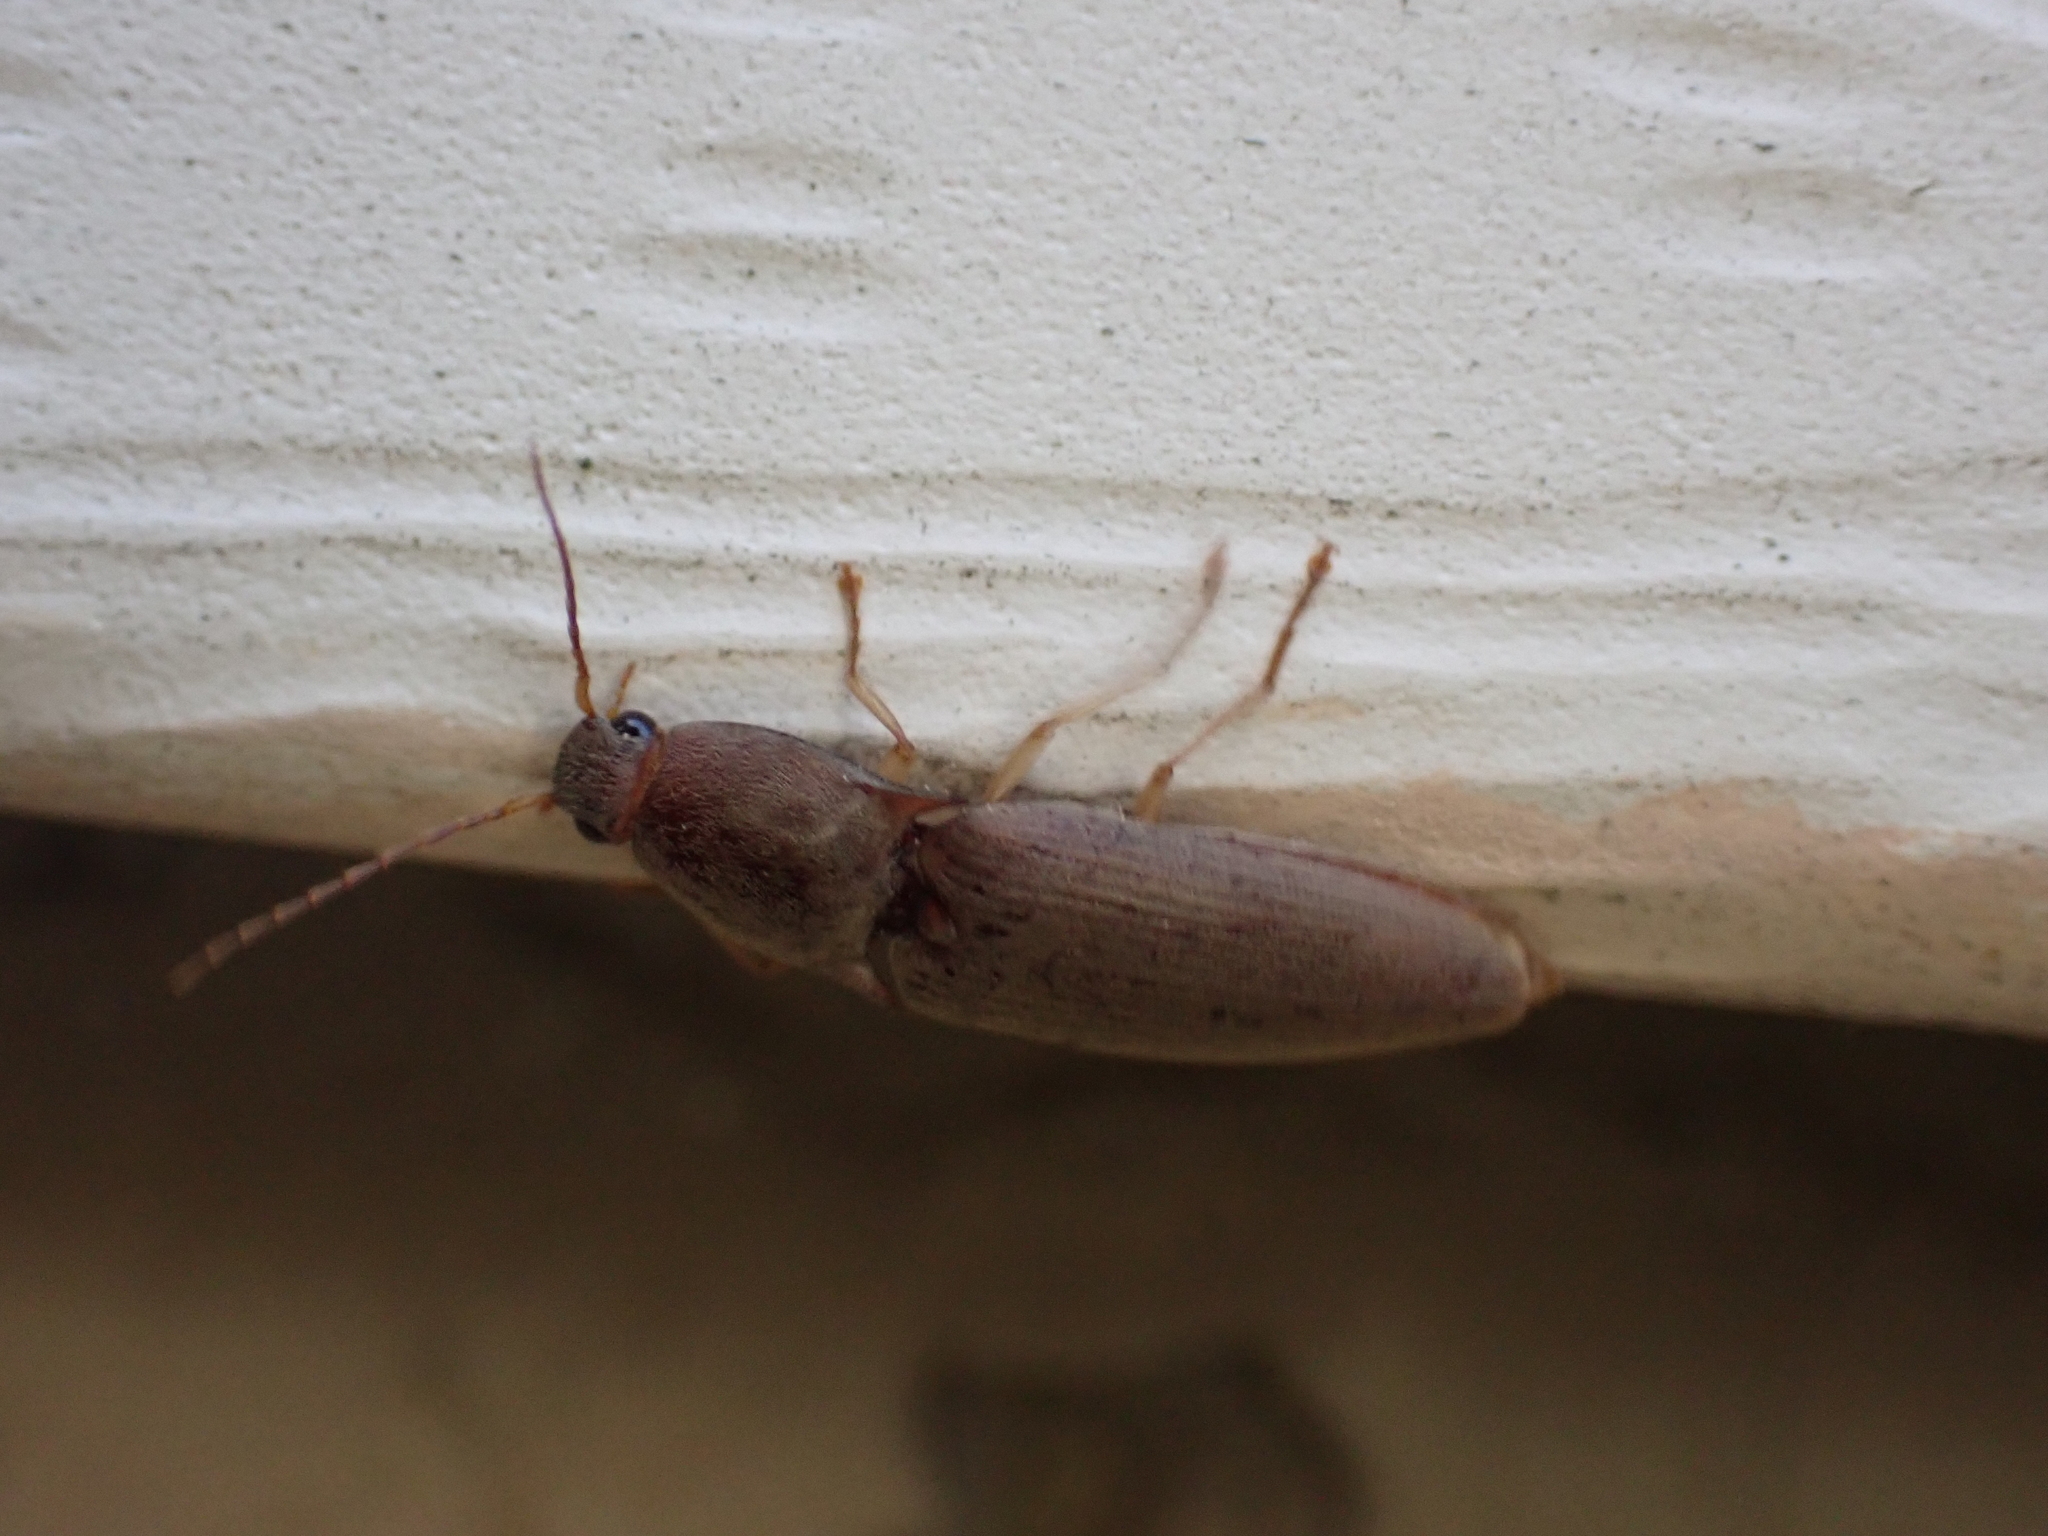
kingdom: Animalia
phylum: Arthropoda
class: Insecta
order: Coleoptera
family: Elateridae
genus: Monocrepidius
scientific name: Monocrepidius lividus
